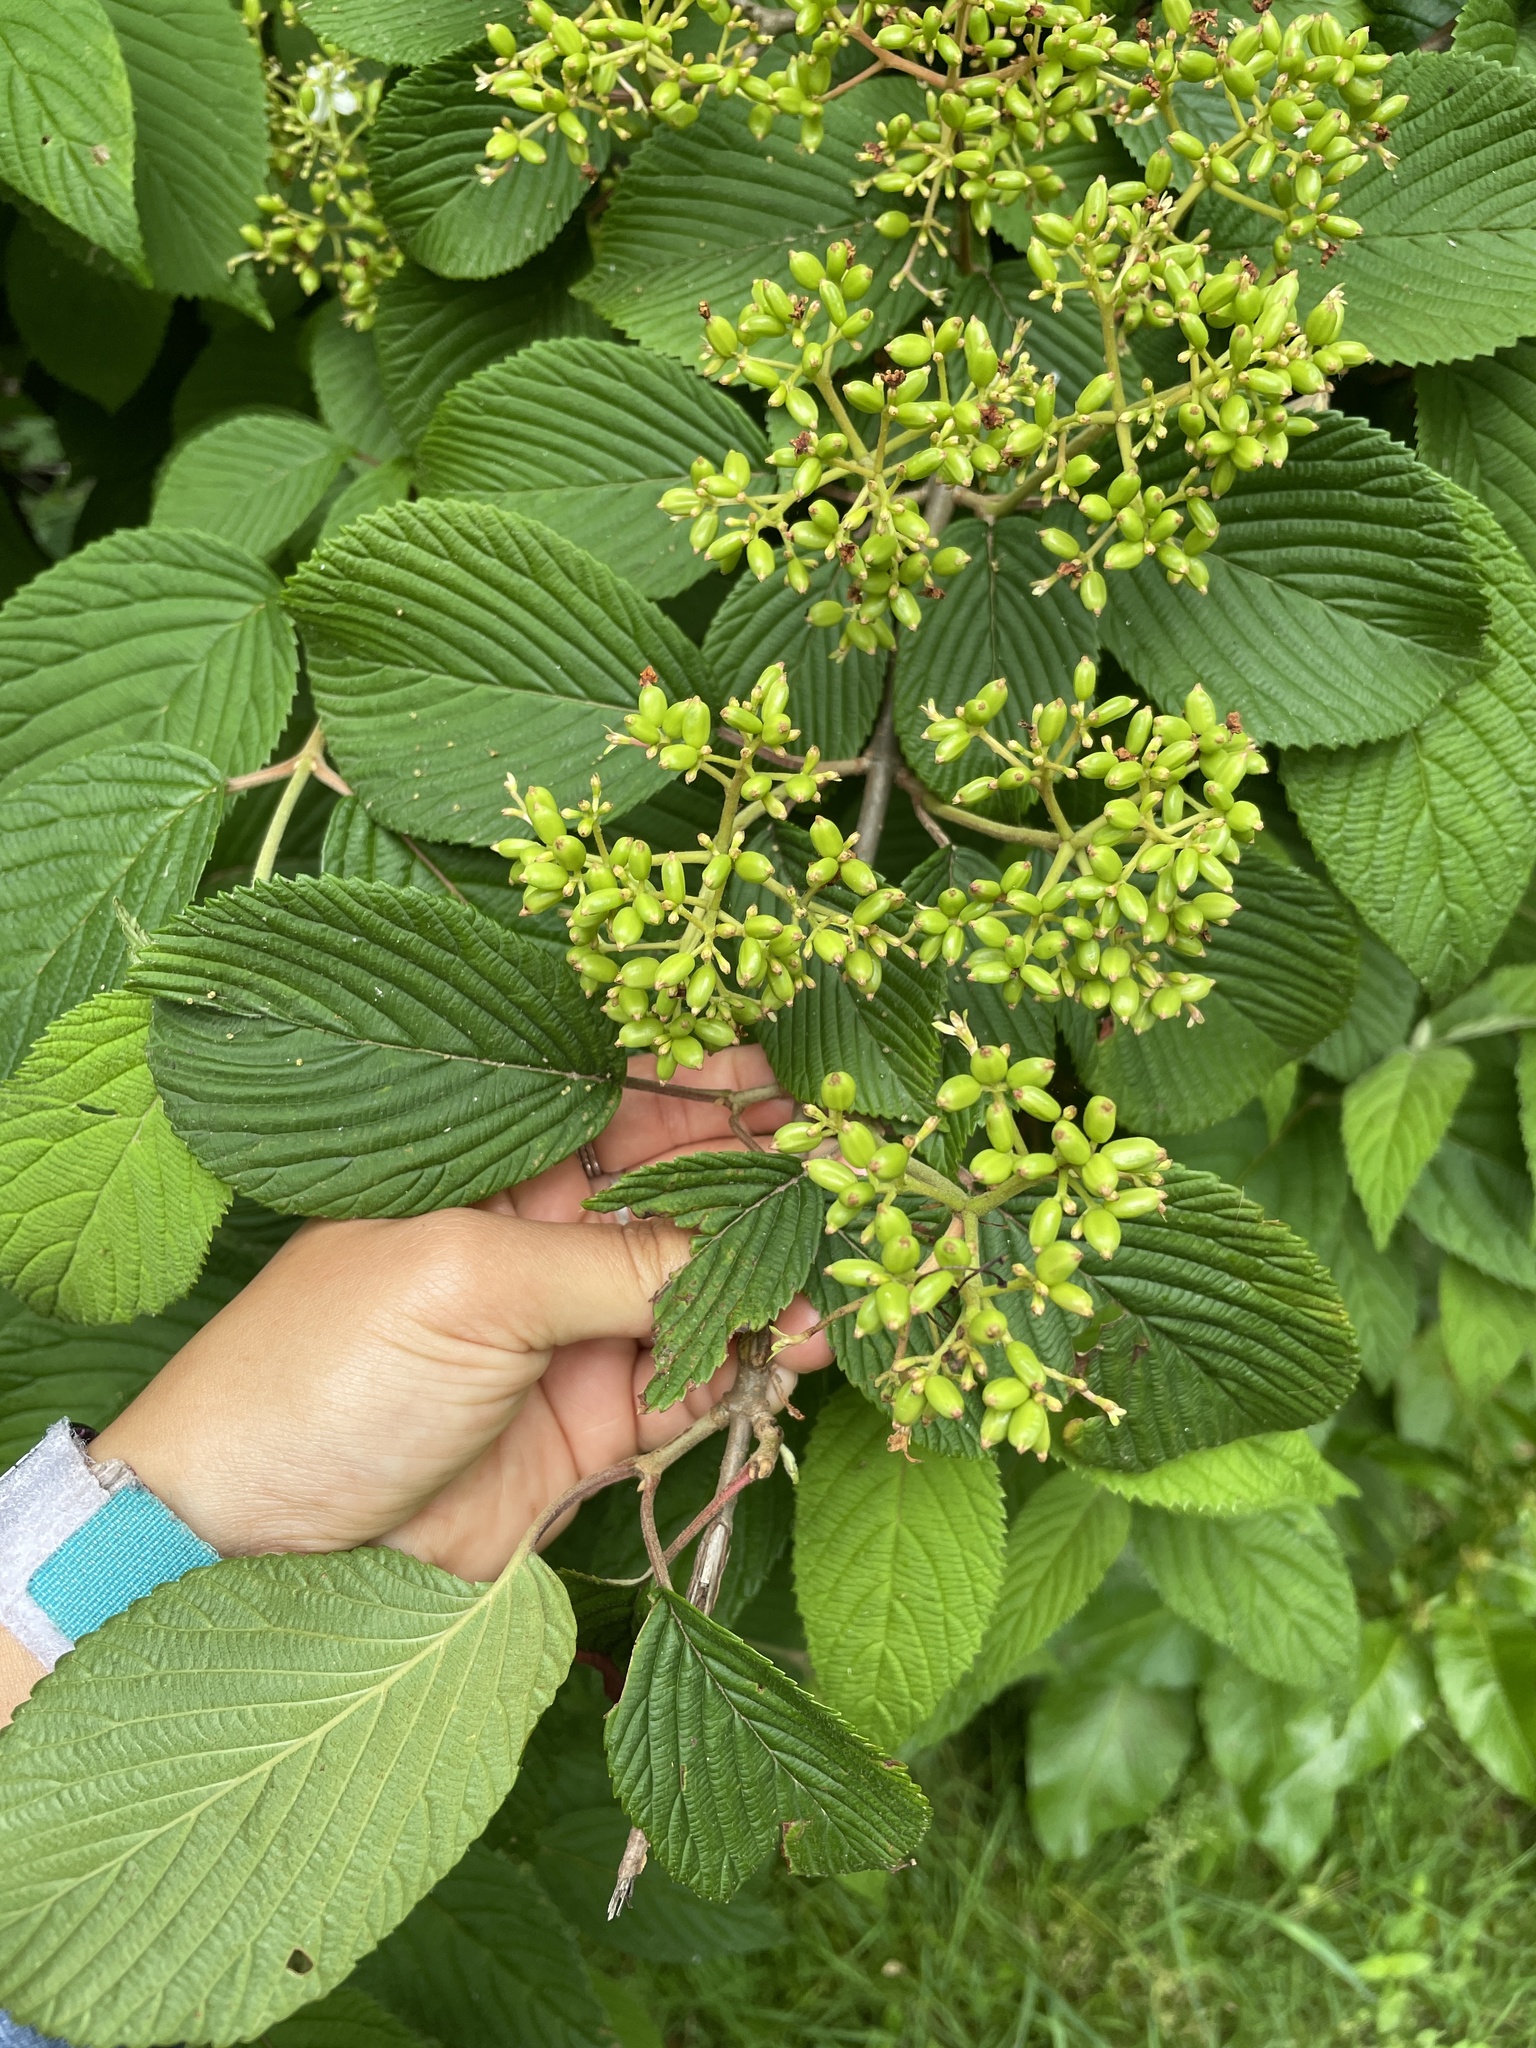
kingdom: Plantae
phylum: Tracheophyta
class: Magnoliopsida
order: Dipsacales
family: Viburnaceae
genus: Viburnum
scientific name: Viburnum plicatum
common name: Japanese snowball
